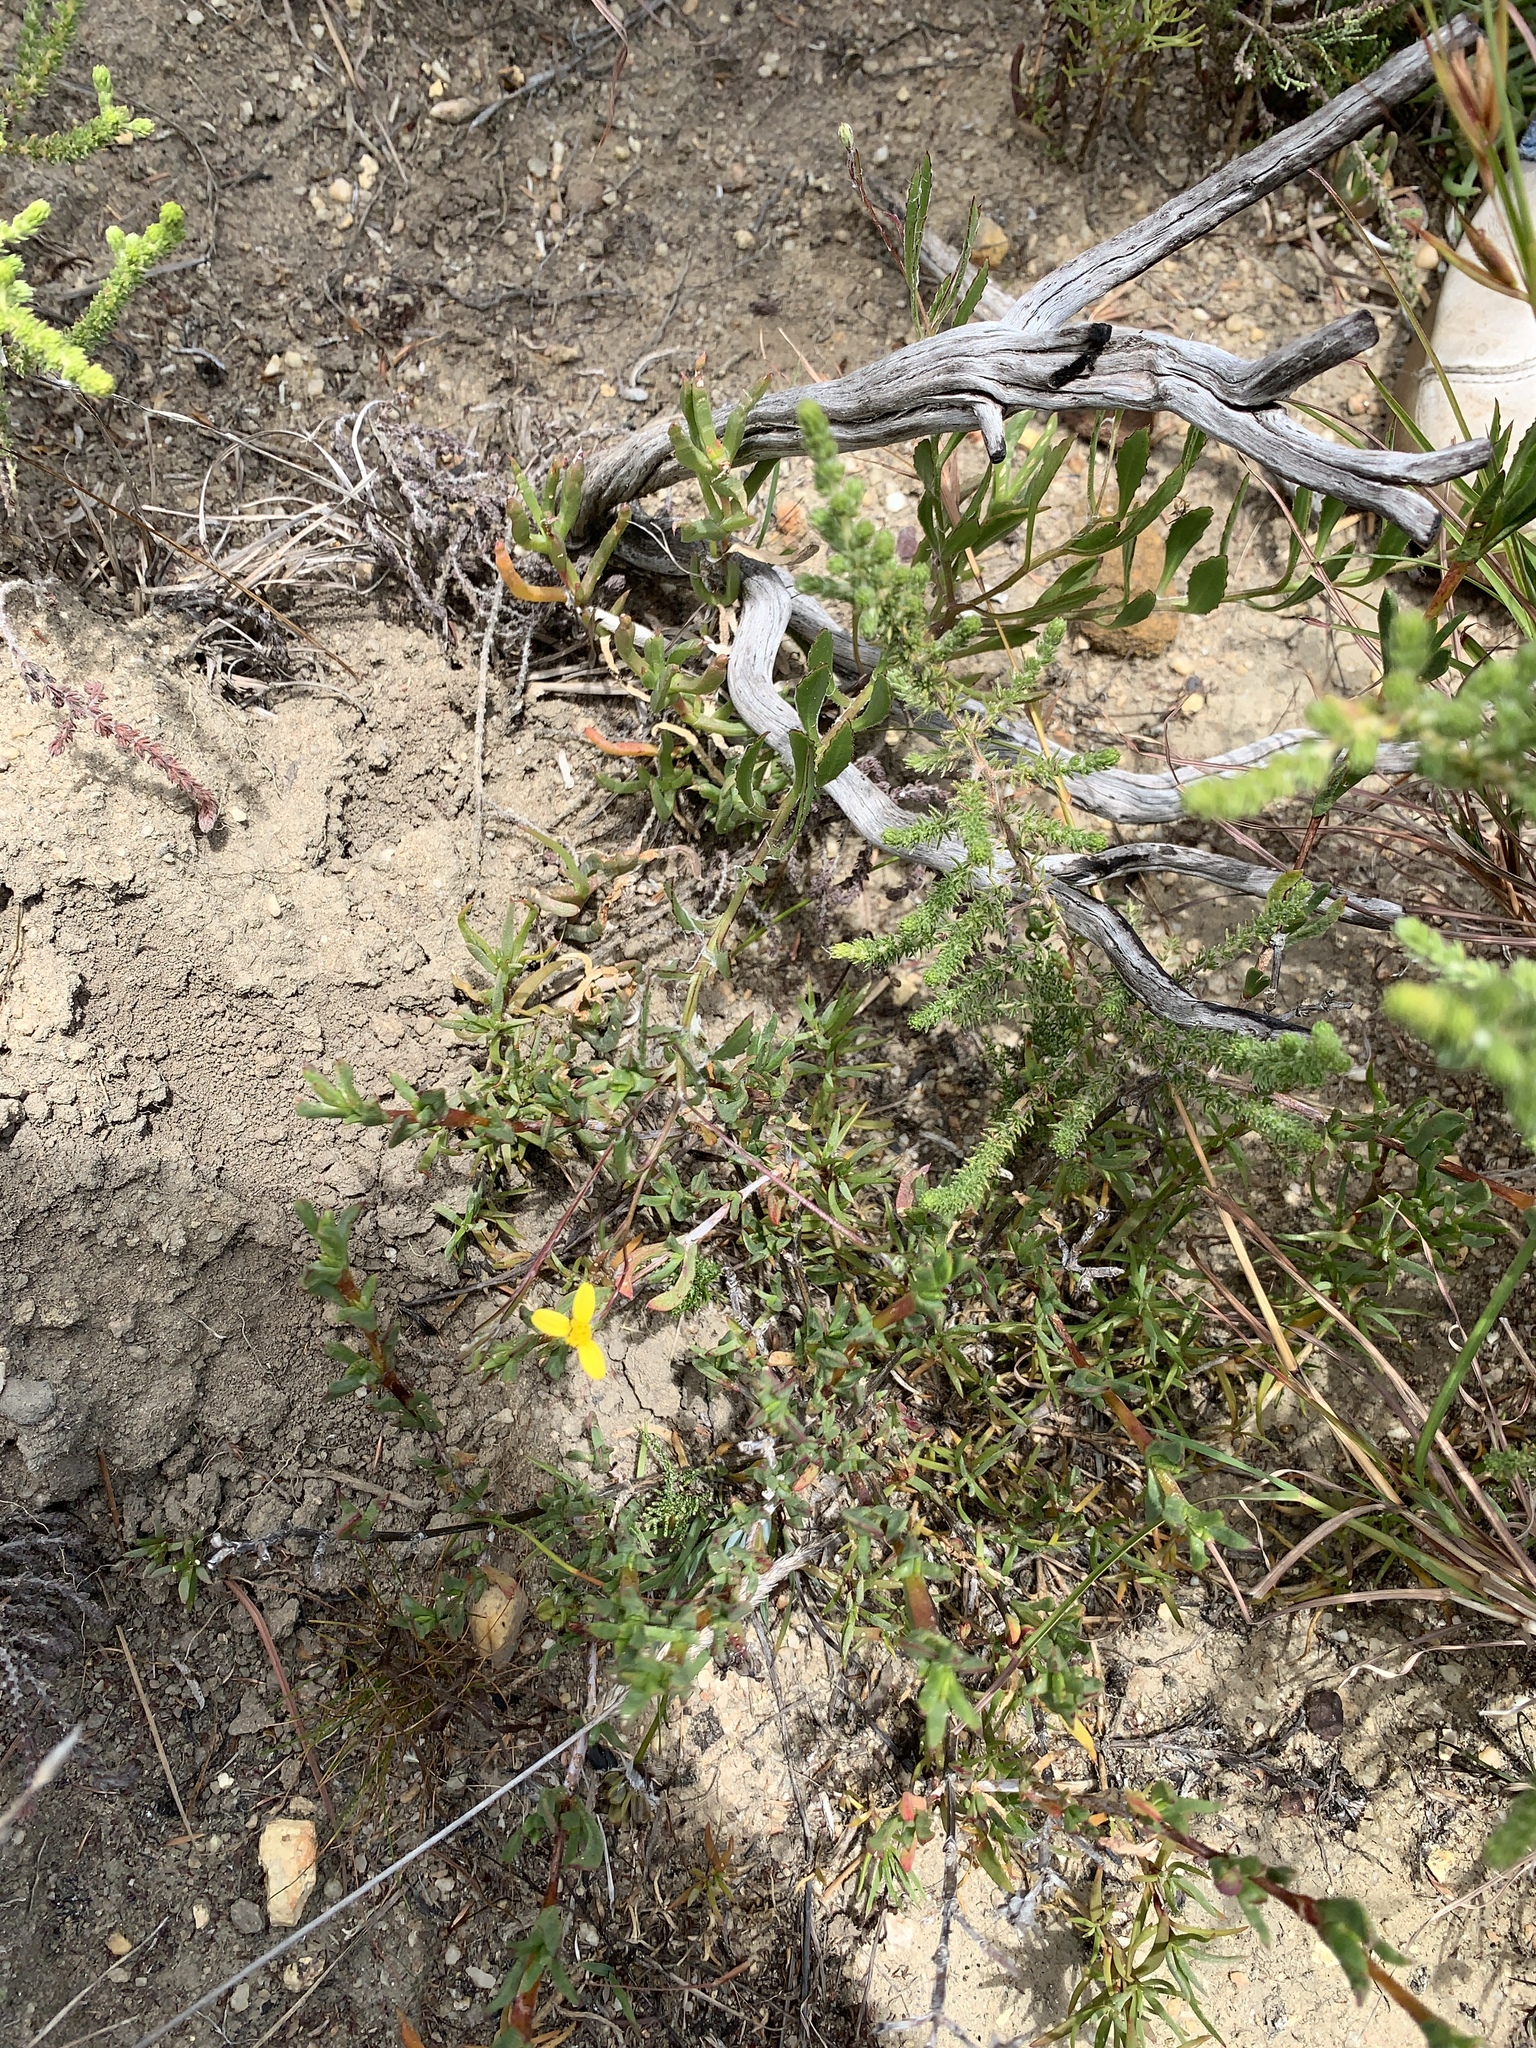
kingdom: Plantae
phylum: Tracheophyta
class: Magnoliopsida
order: Asterales
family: Asteraceae
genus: Osteospermum
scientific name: Osteospermum ciliatum
